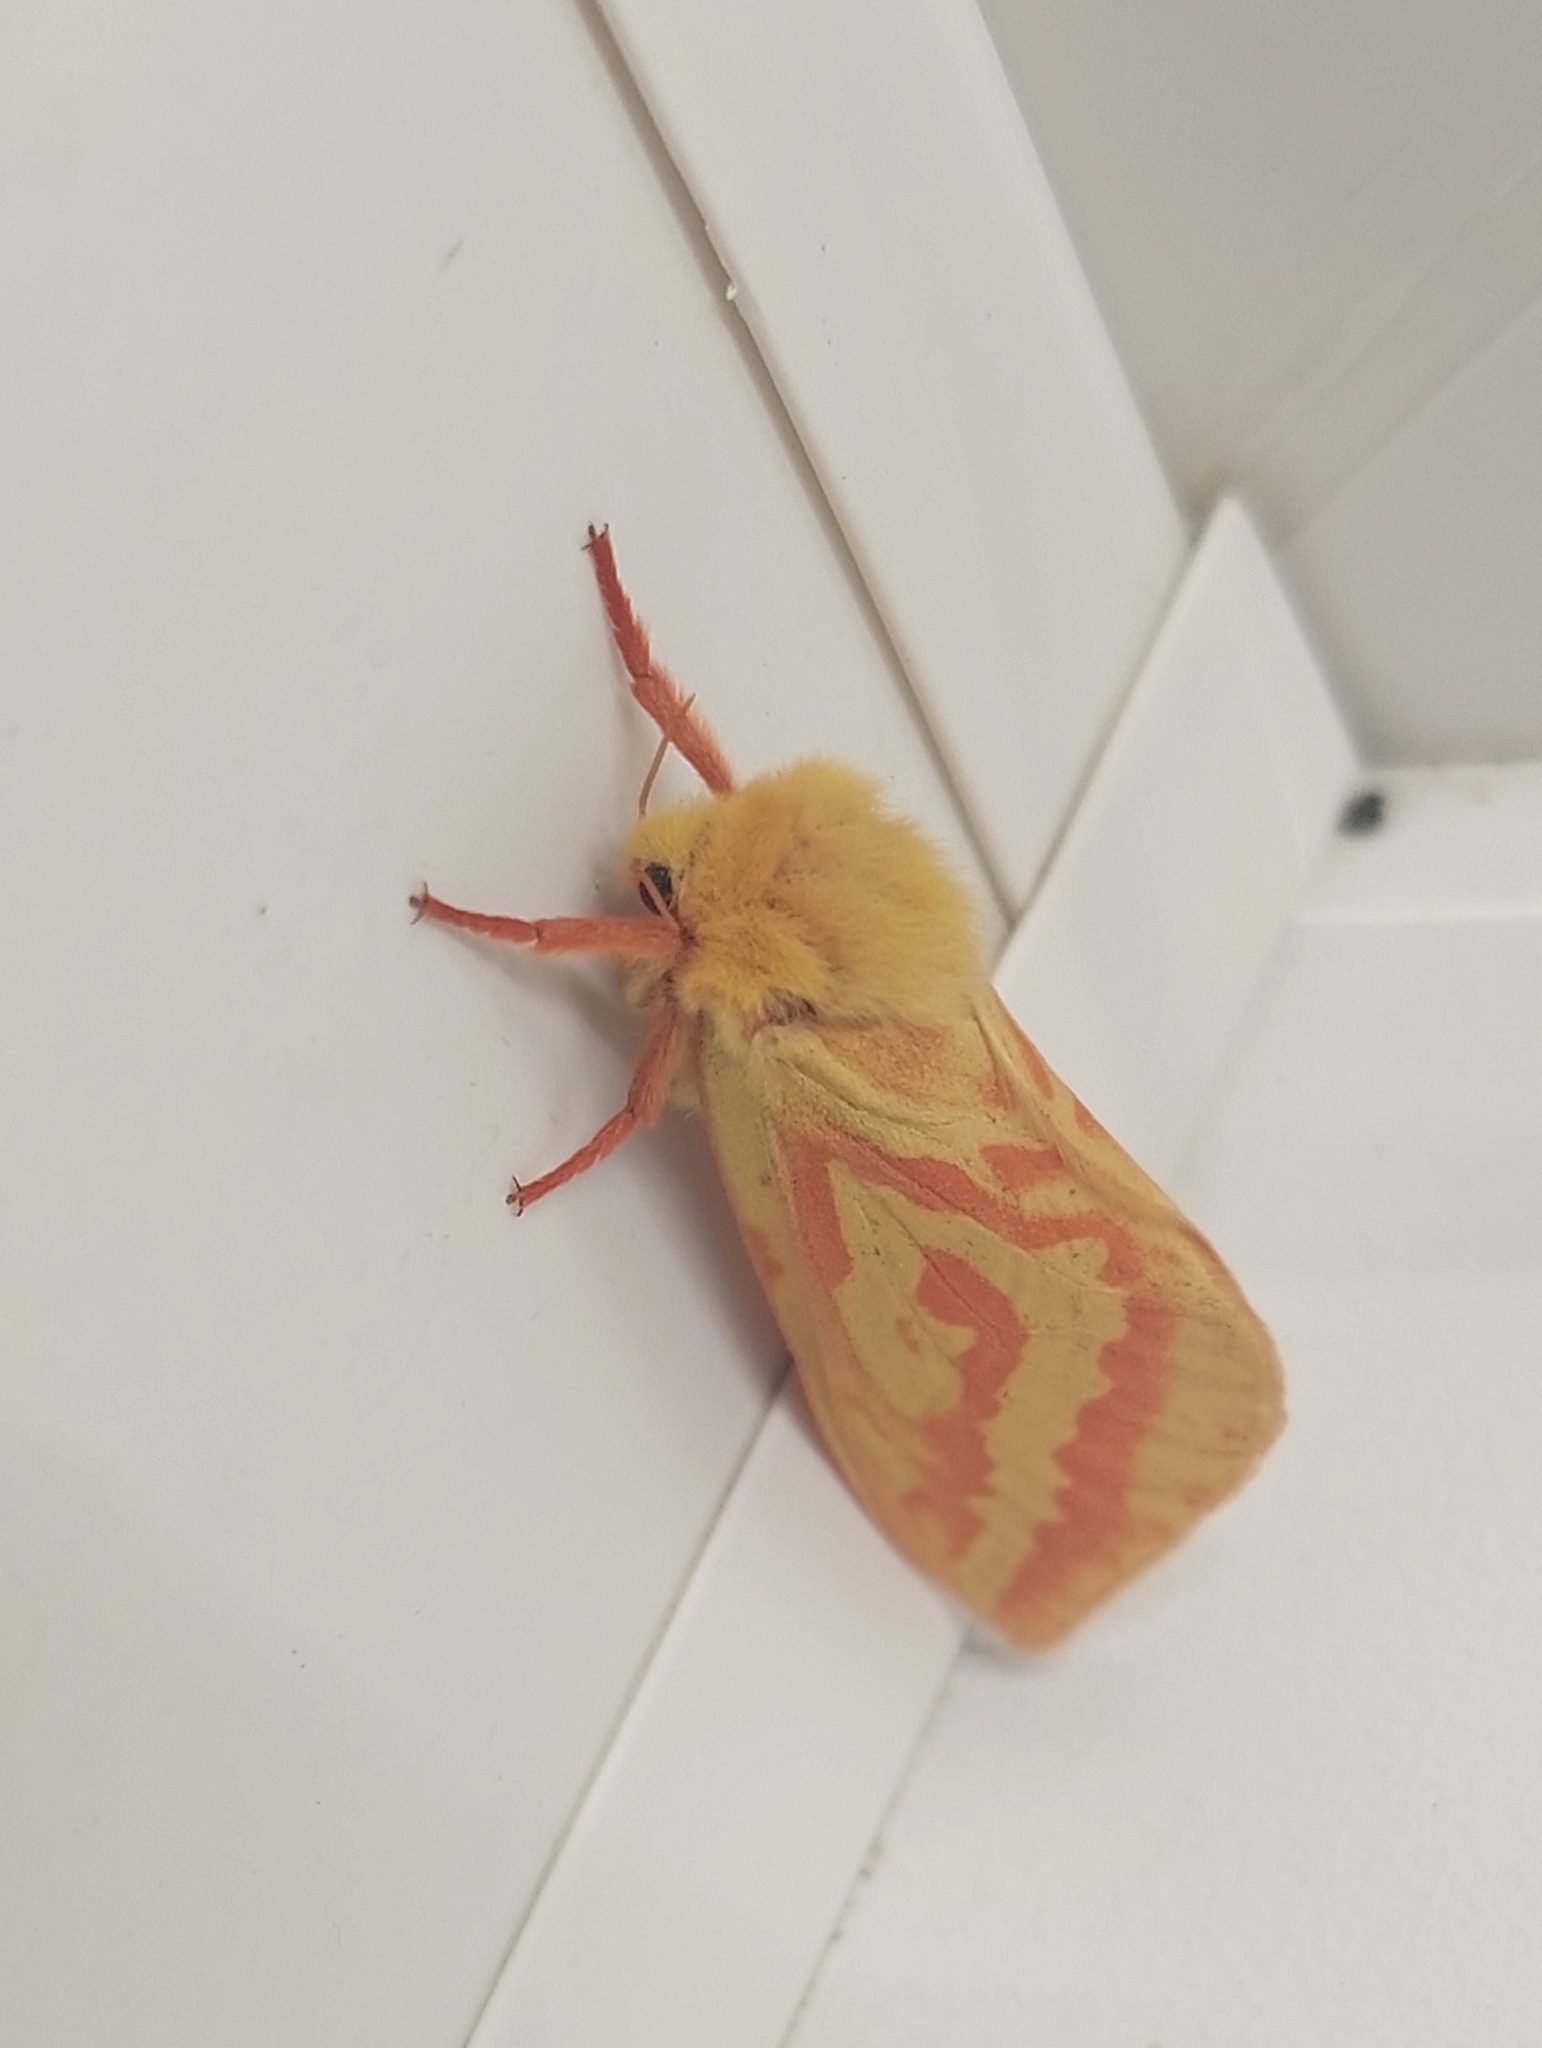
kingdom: Animalia
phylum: Arthropoda
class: Insecta
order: Lepidoptera
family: Hepialidae
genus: Hepialus
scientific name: Hepialus humuli
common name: Ghost moth
